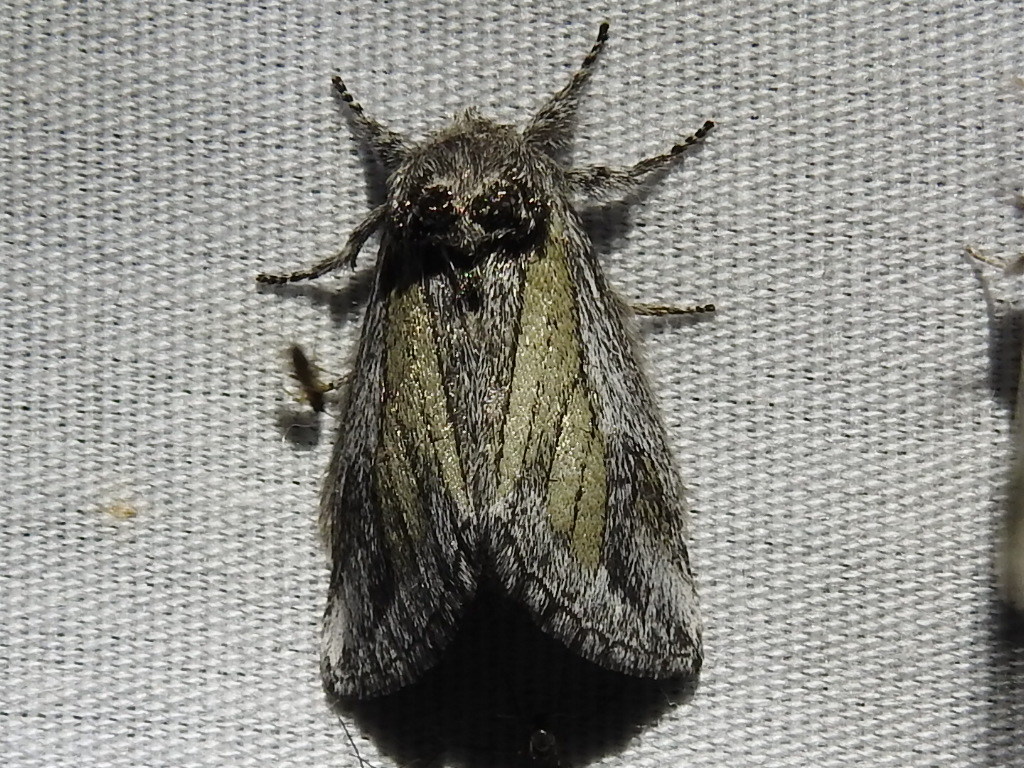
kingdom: Animalia
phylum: Arthropoda
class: Insecta
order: Lepidoptera
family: Notodontidae
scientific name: Notodontidae
